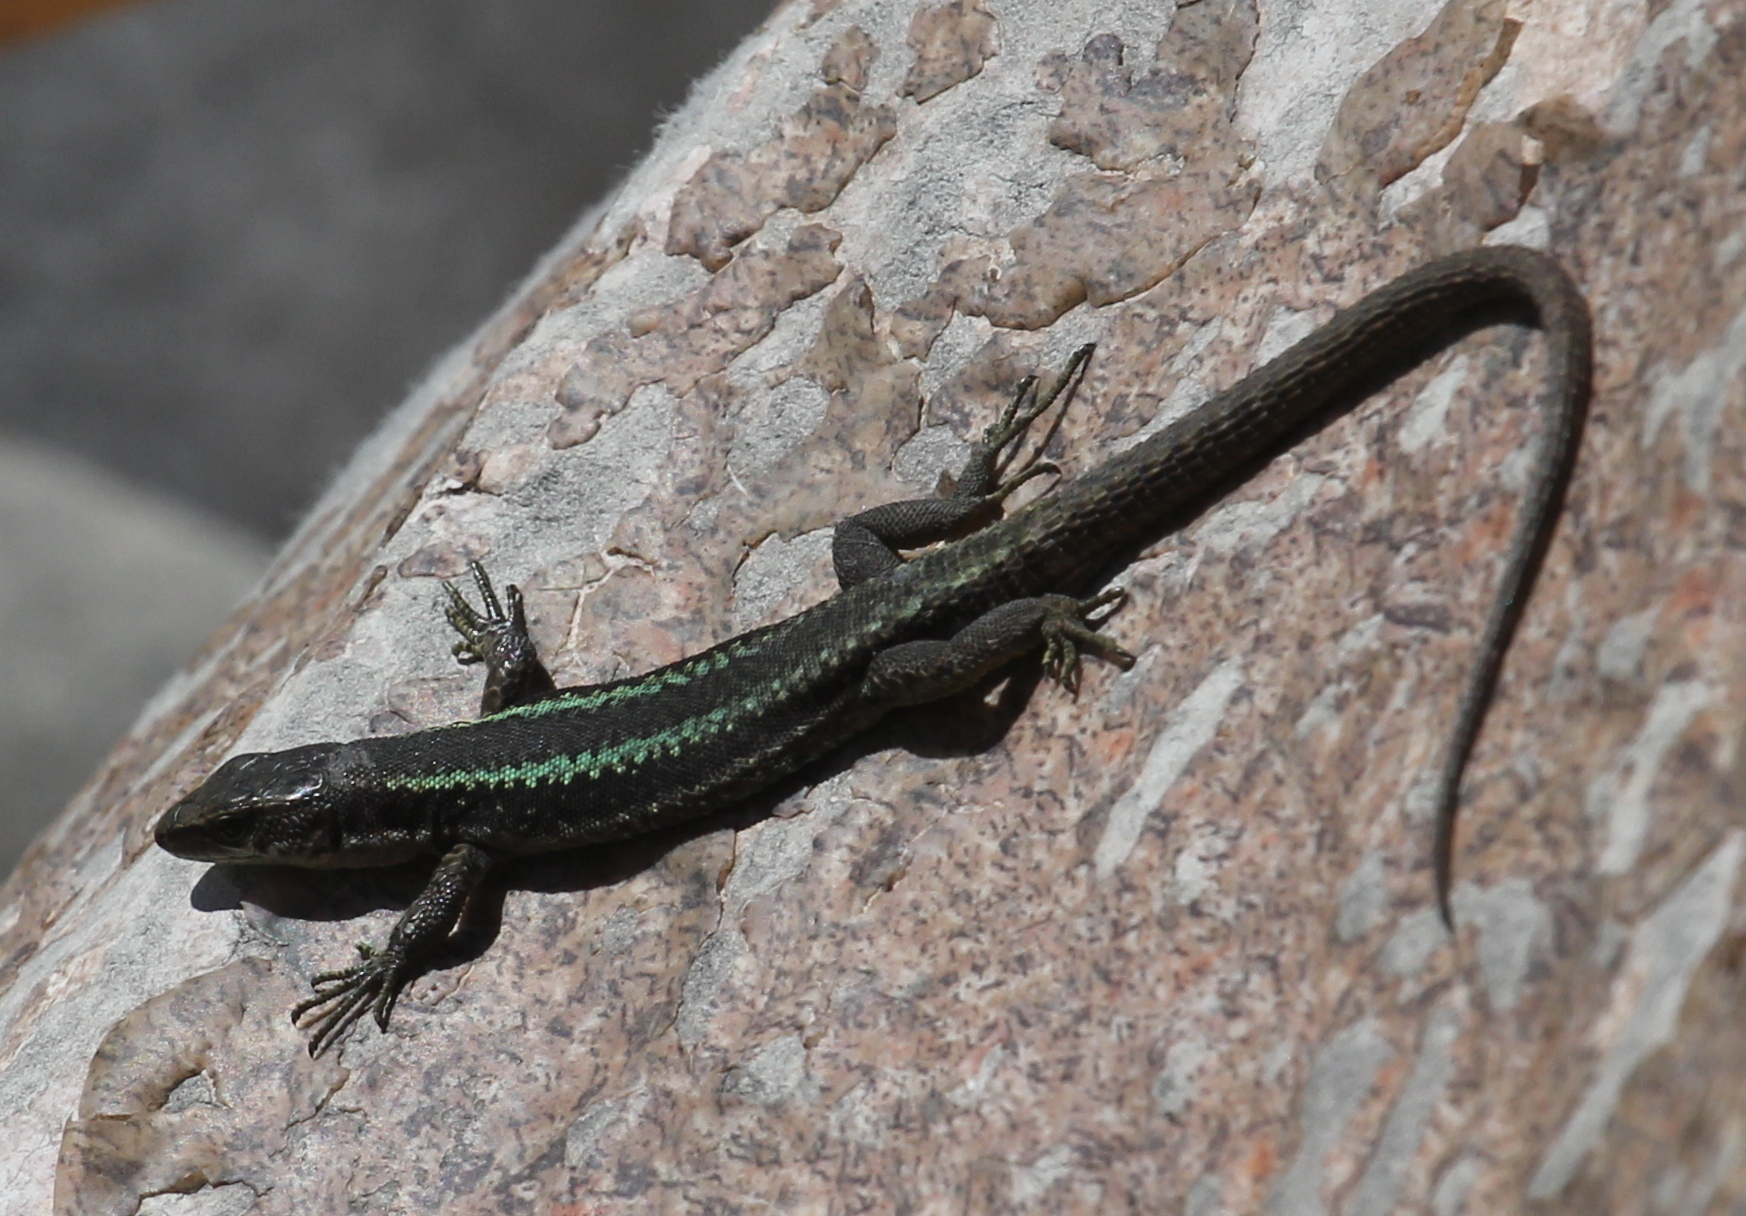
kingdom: Animalia
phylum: Chordata
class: Squamata
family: Lacertidae
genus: Darevskia
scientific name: Darevskia caucasica
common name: Caucasian llzard
